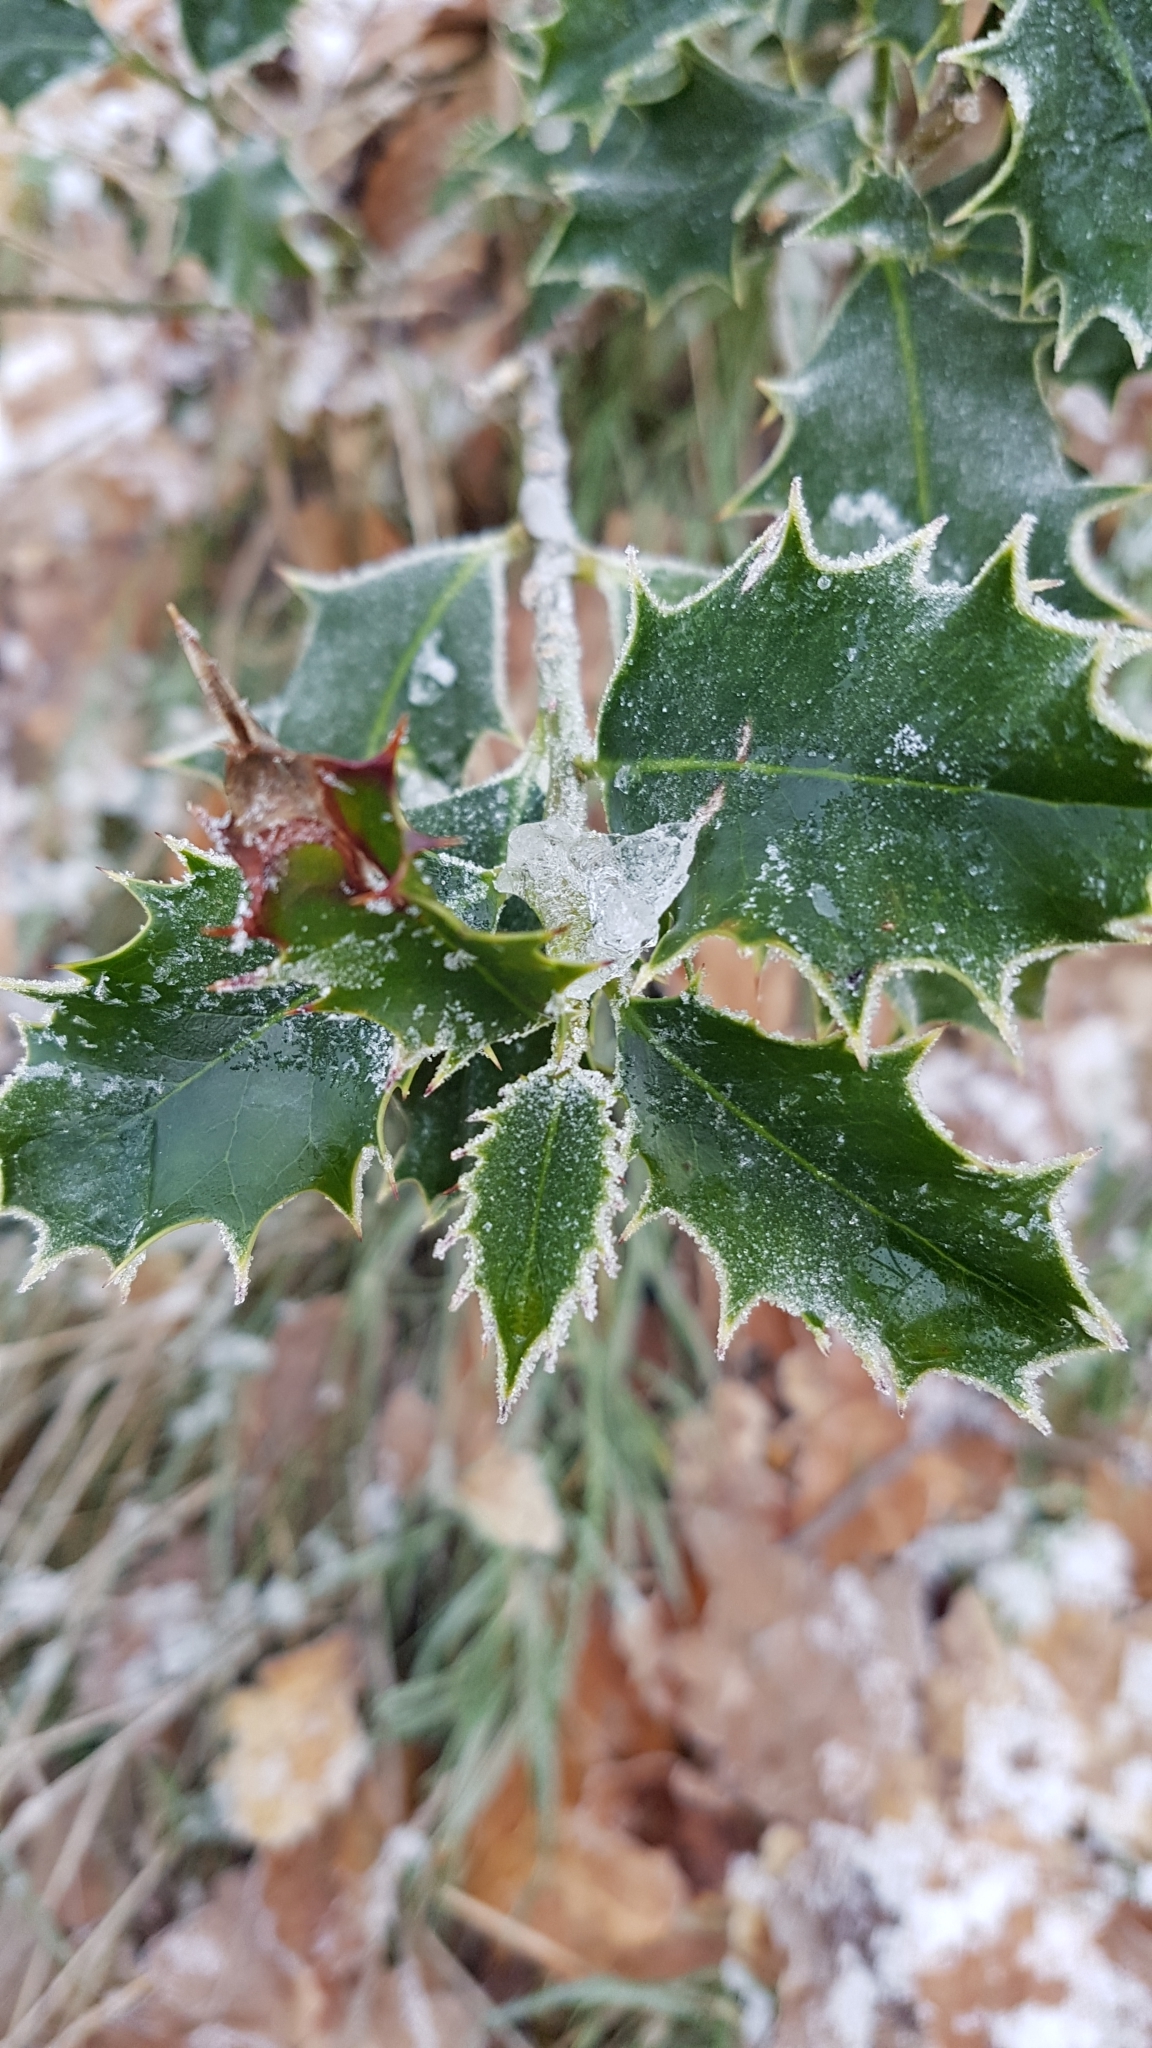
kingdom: Plantae
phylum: Tracheophyta
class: Magnoliopsida
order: Aquifoliales
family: Aquifoliaceae
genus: Ilex
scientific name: Ilex aquifolium
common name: English holly
